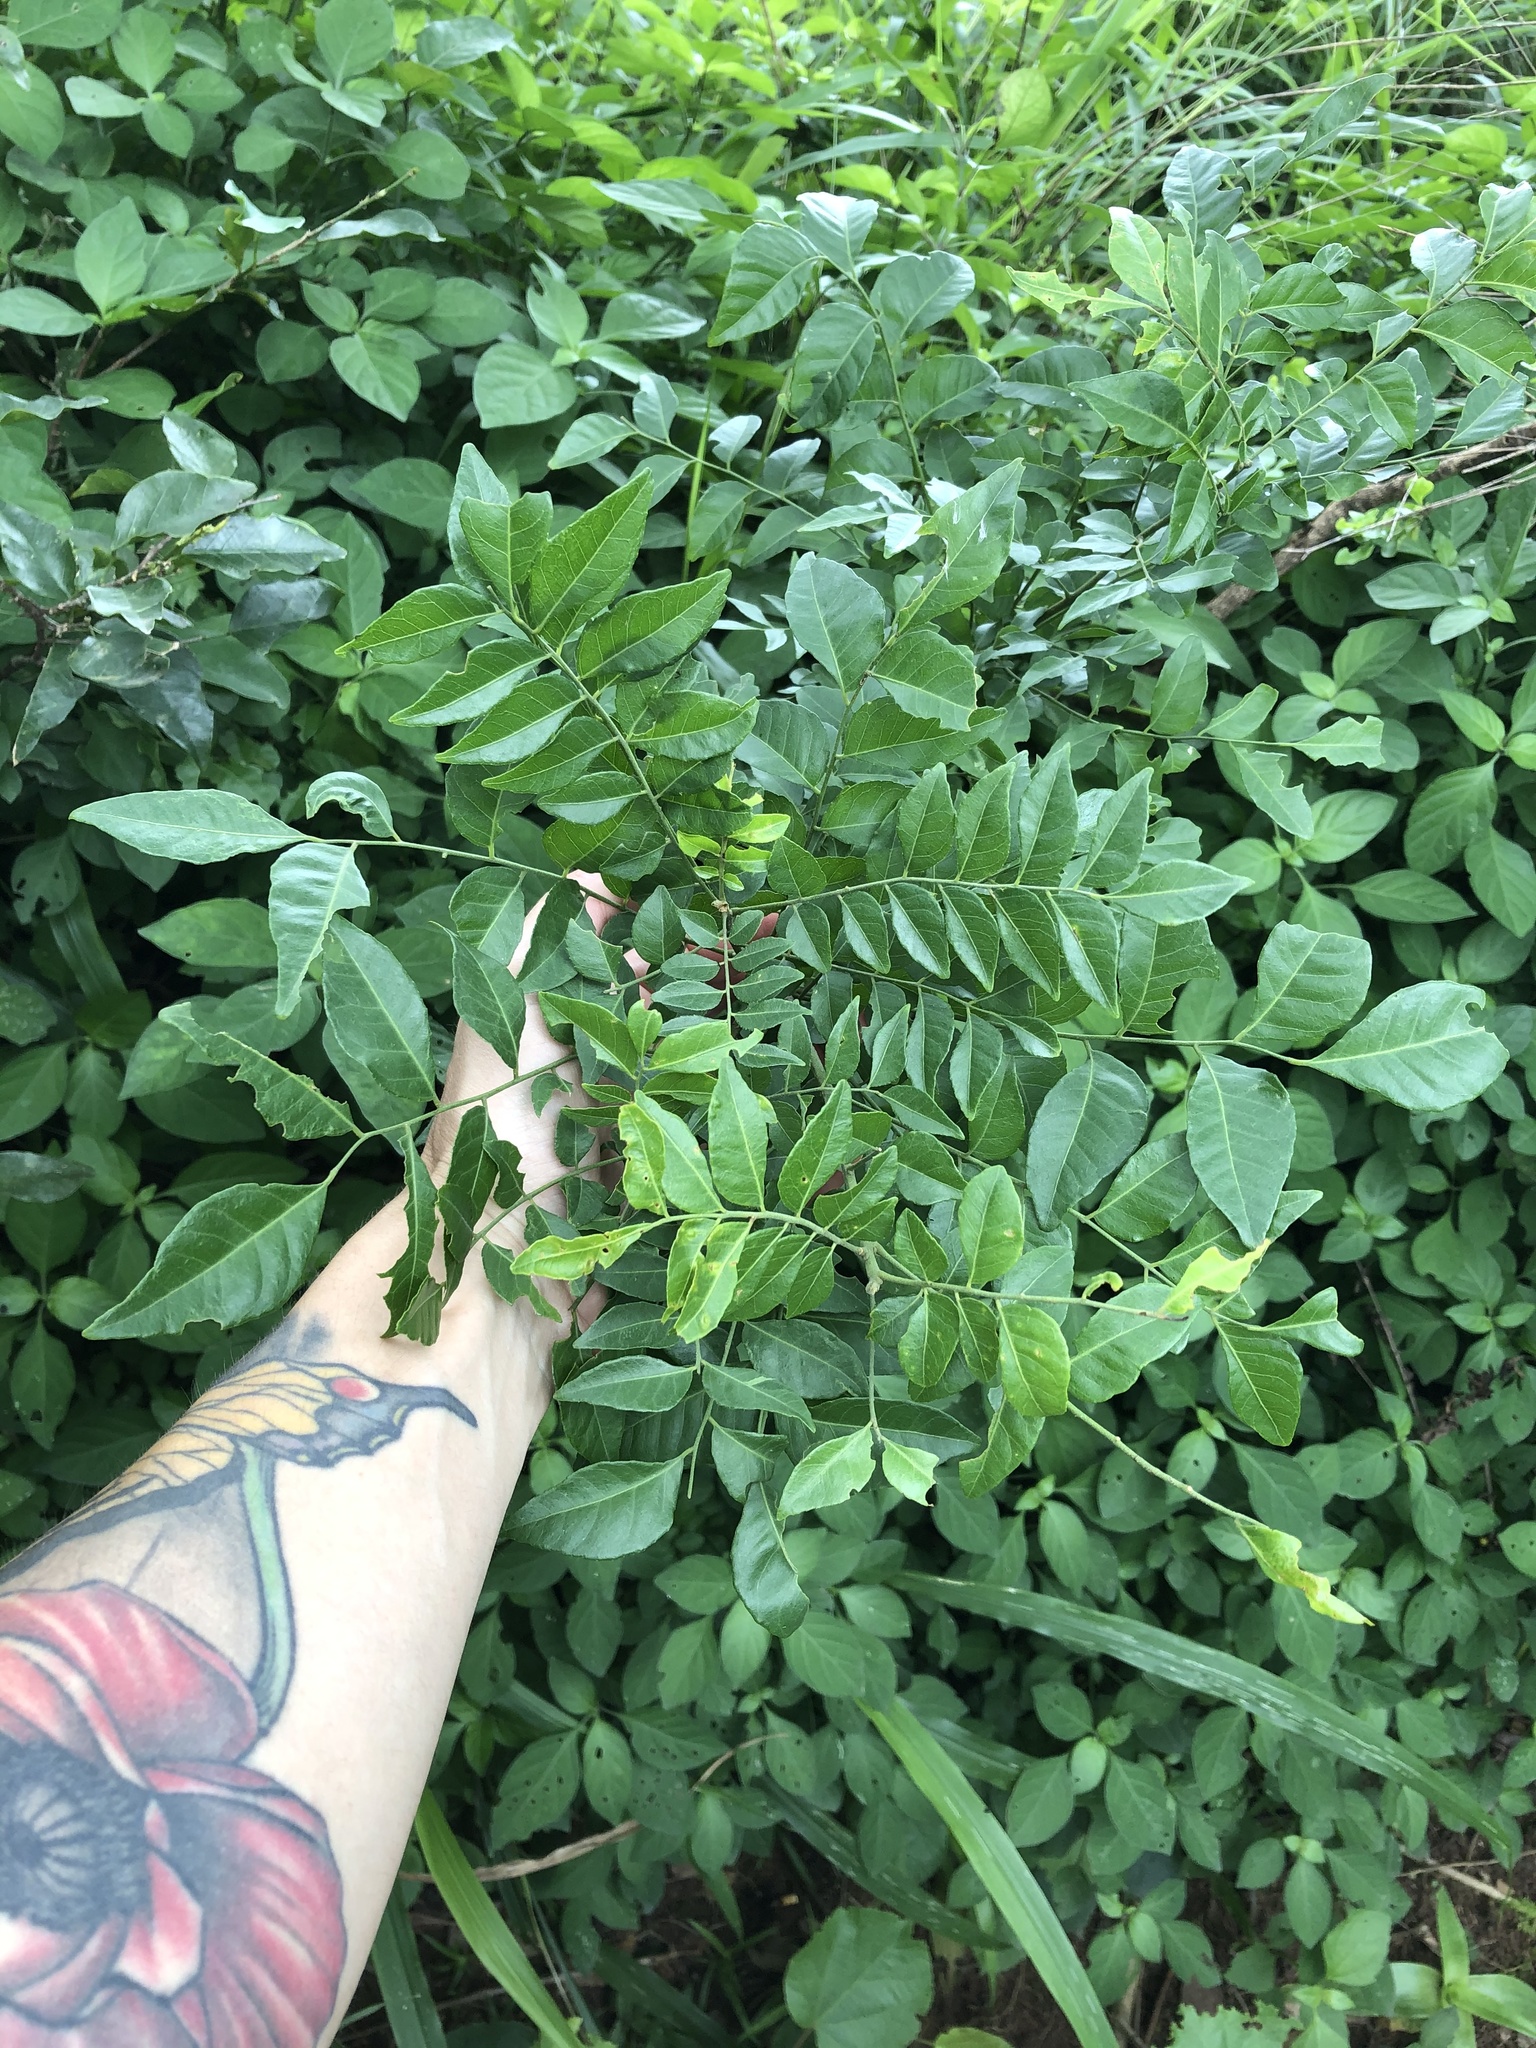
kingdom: Plantae
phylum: Tracheophyta
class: Magnoliopsida
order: Sapindales
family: Rutaceae
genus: Clausena
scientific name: Clausena anisata
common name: Horsewood
